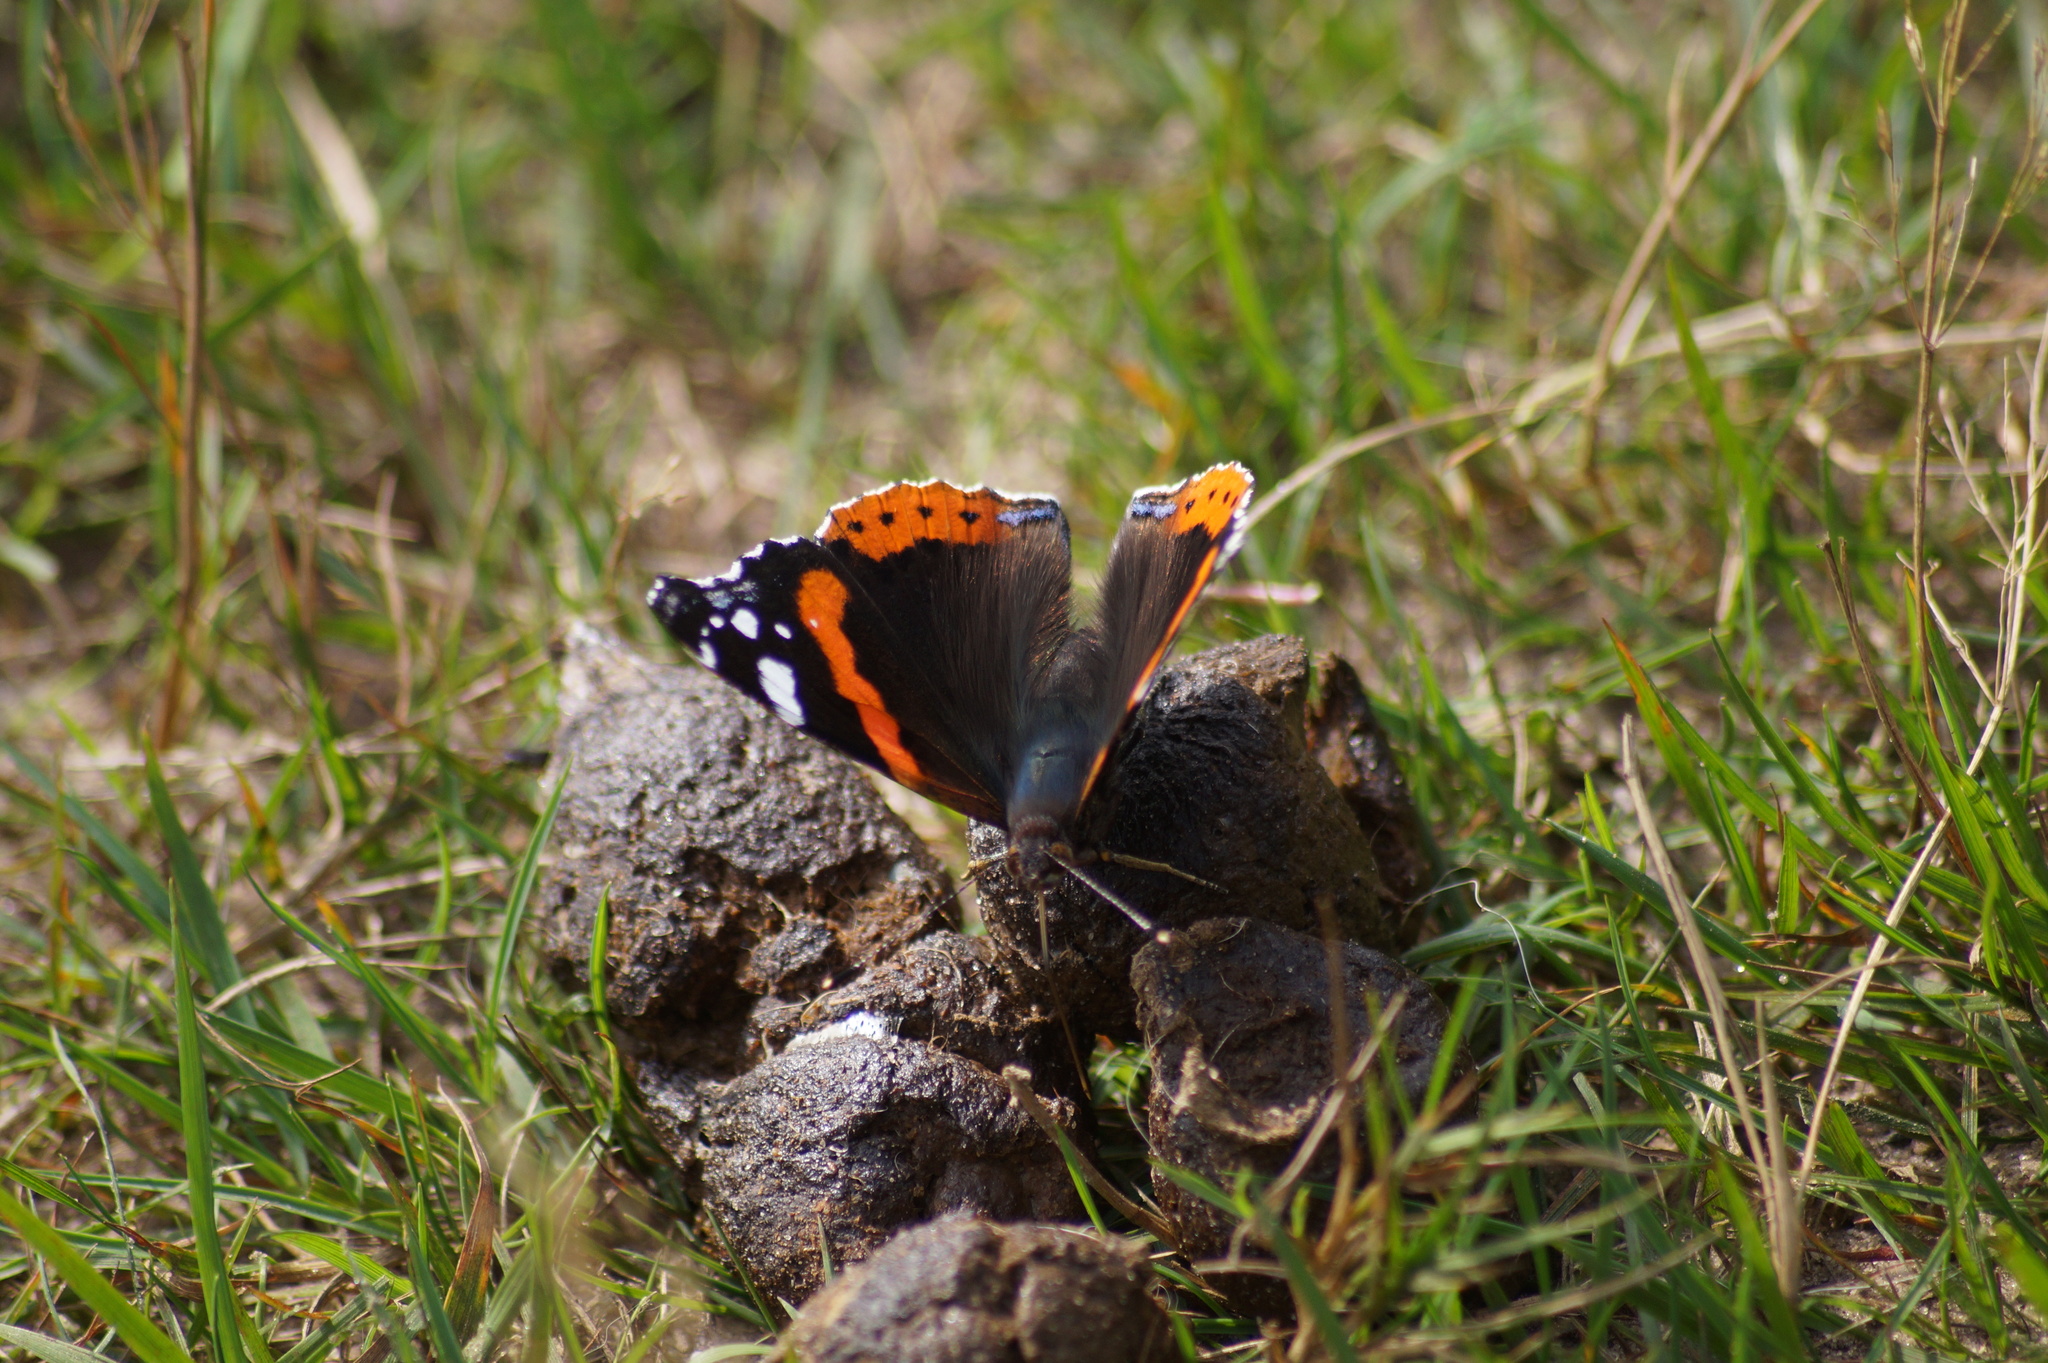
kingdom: Animalia
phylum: Arthropoda
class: Insecta
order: Lepidoptera
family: Nymphalidae
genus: Vanessa
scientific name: Vanessa atalanta
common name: Red admiral
